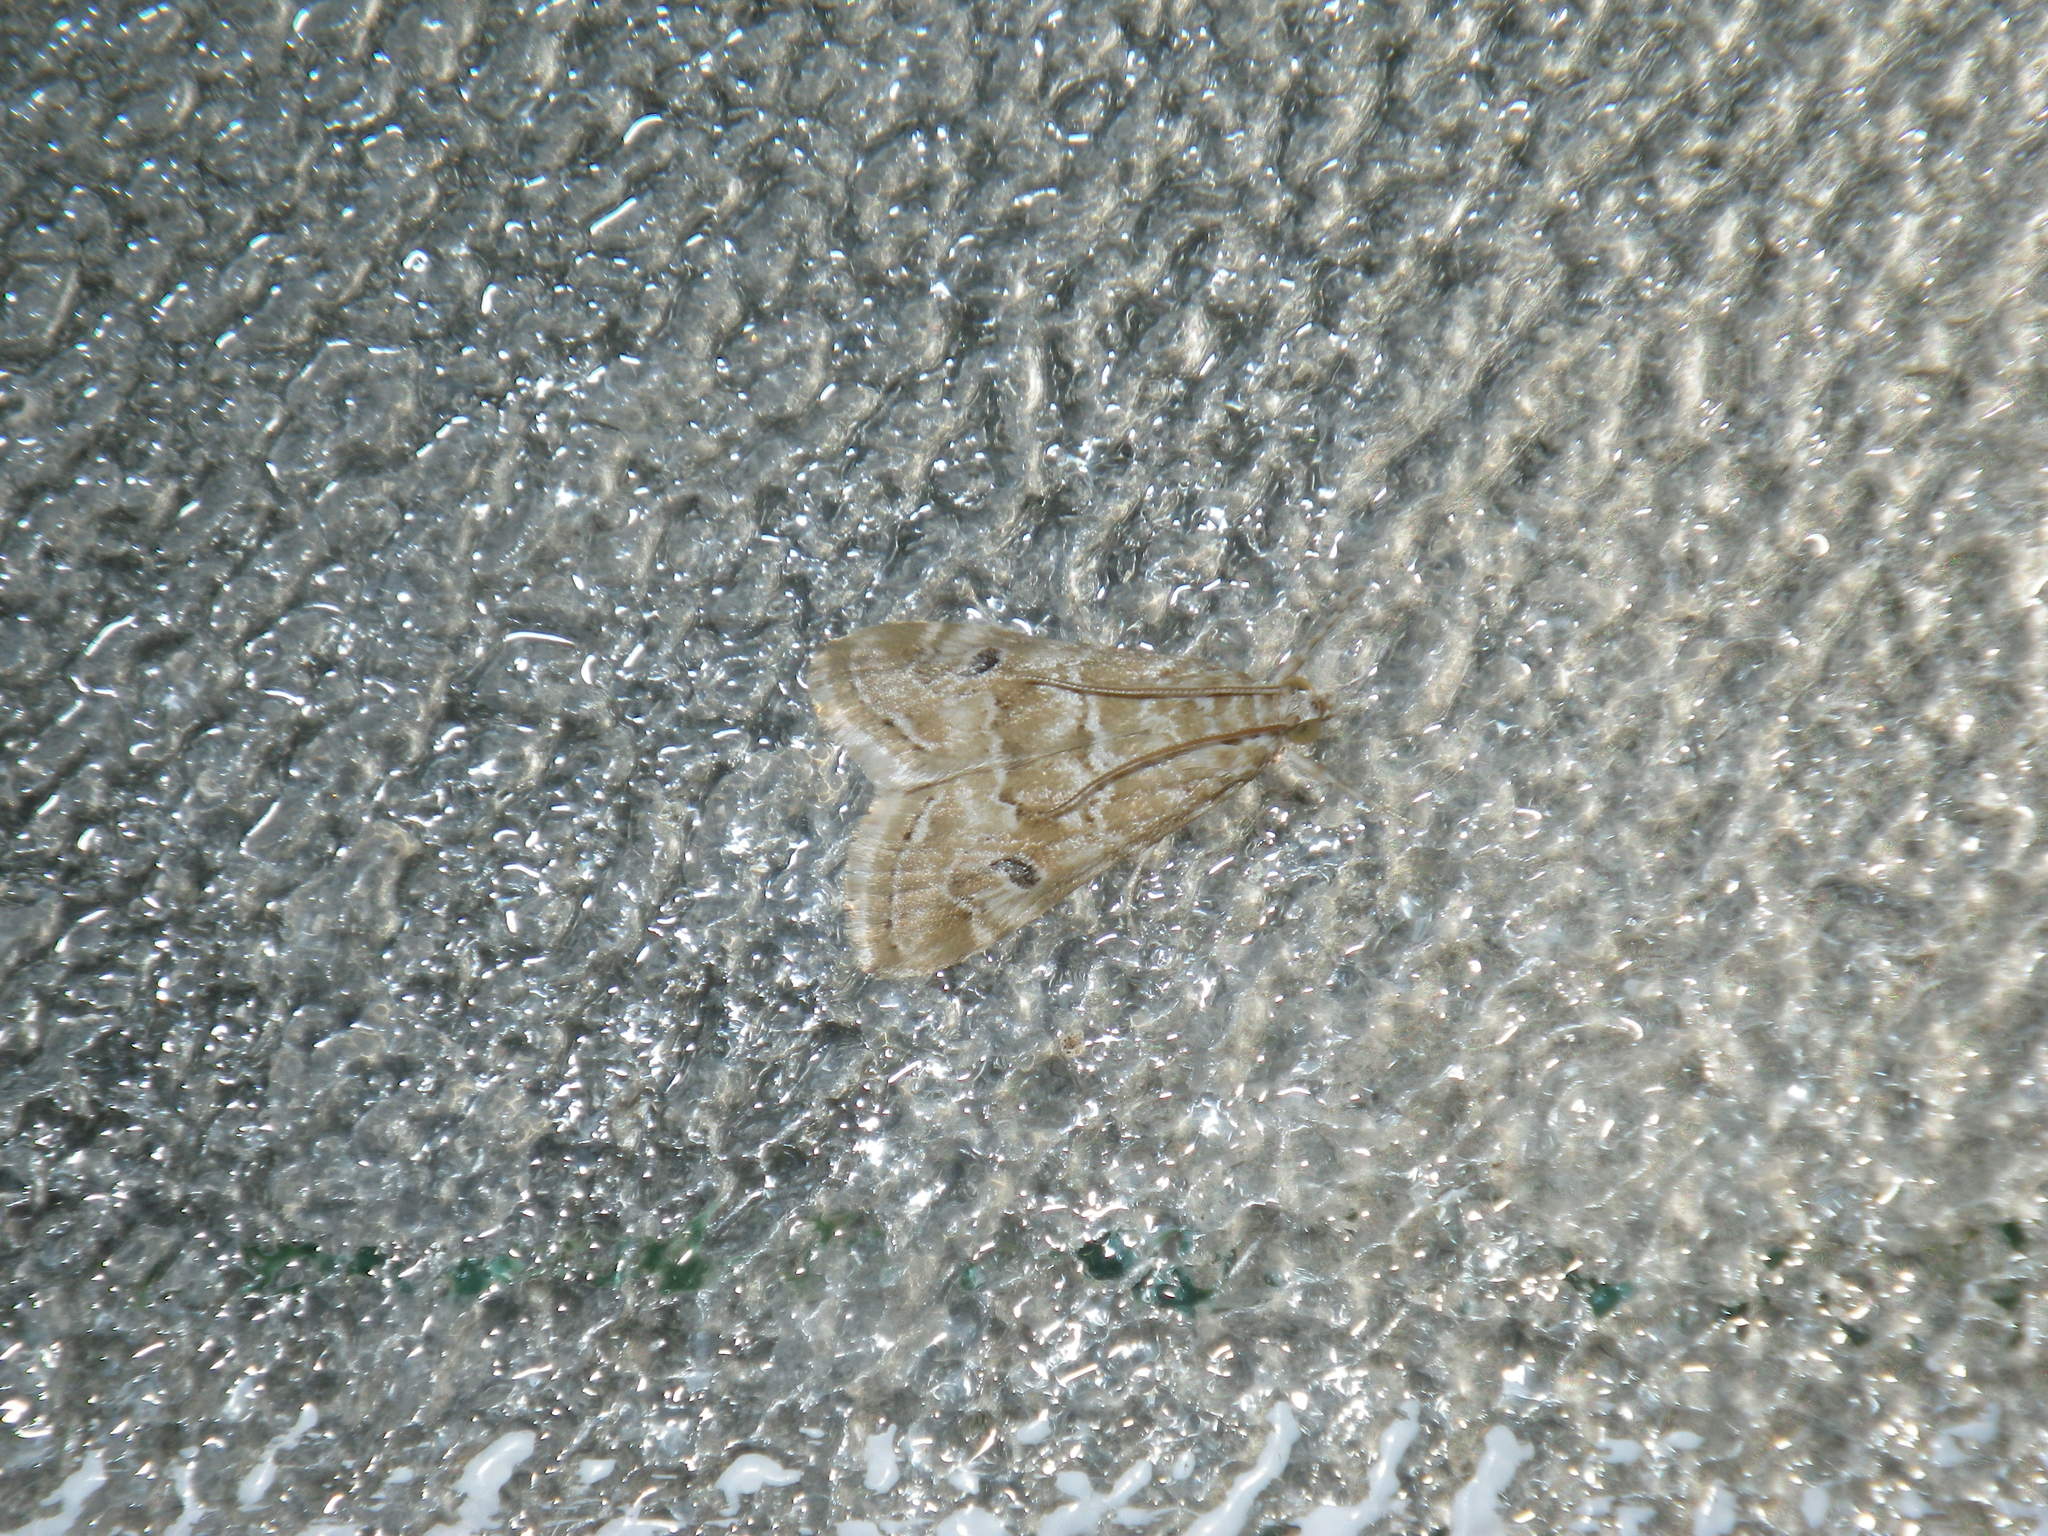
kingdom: Animalia
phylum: Arthropoda
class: Insecta
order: Lepidoptera
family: Crambidae
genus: Hellula
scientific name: Hellula rogatalis
